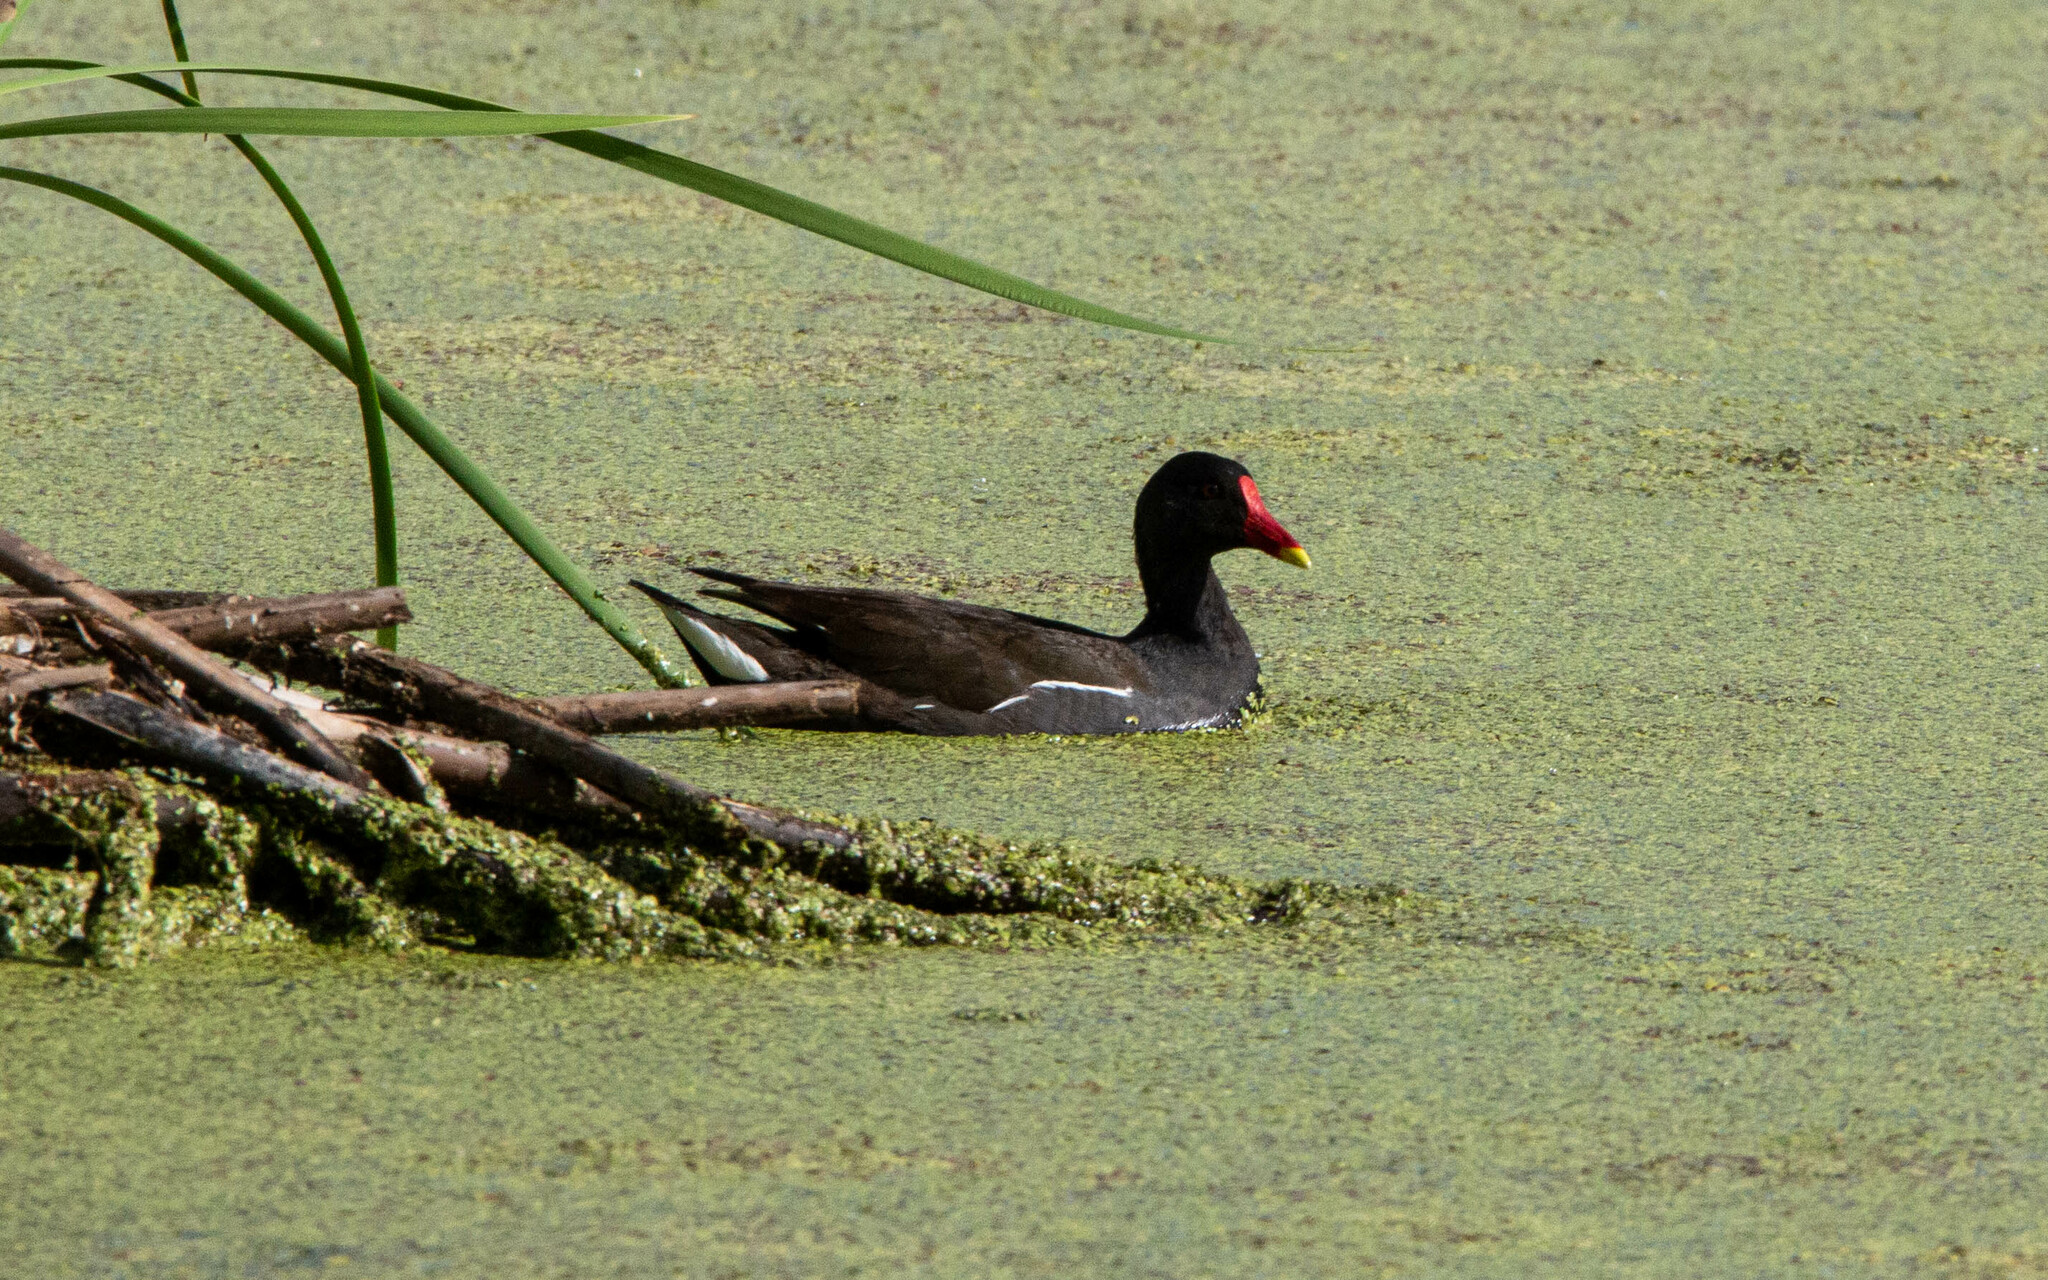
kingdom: Animalia
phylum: Chordata
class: Aves
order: Gruiformes
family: Rallidae
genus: Gallinula
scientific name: Gallinula chloropus
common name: Common moorhen
